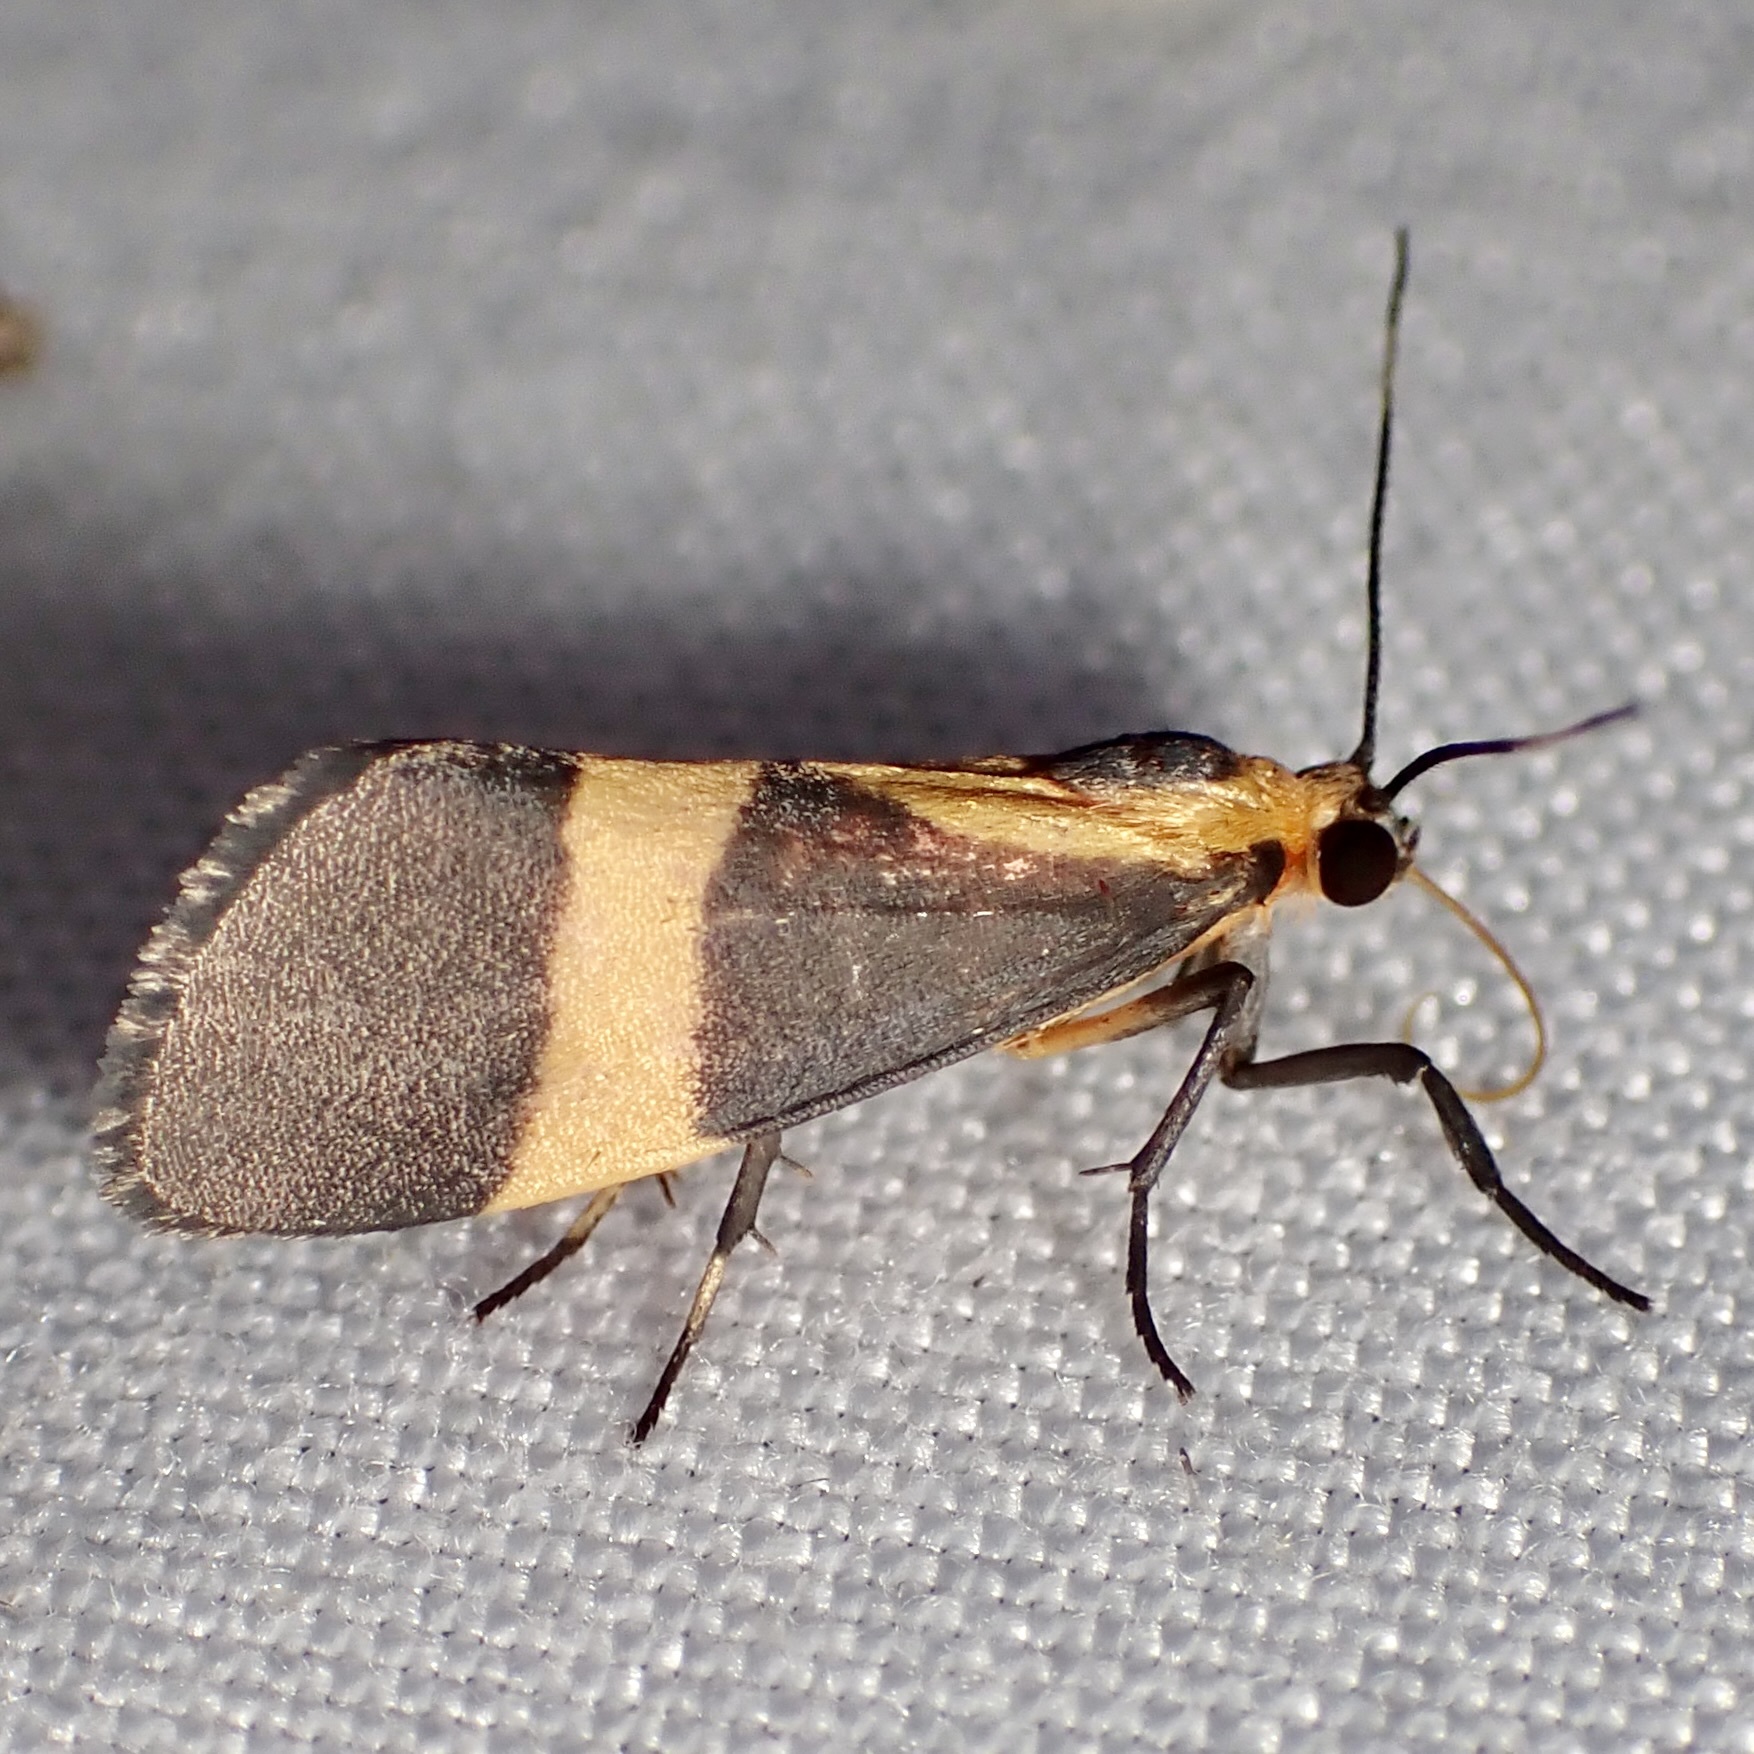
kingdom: Animalia
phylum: Arthropoda
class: Insecta
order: Lepidoptera
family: Erebidae
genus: Cisthene
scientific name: Cisthene tenuifascia
